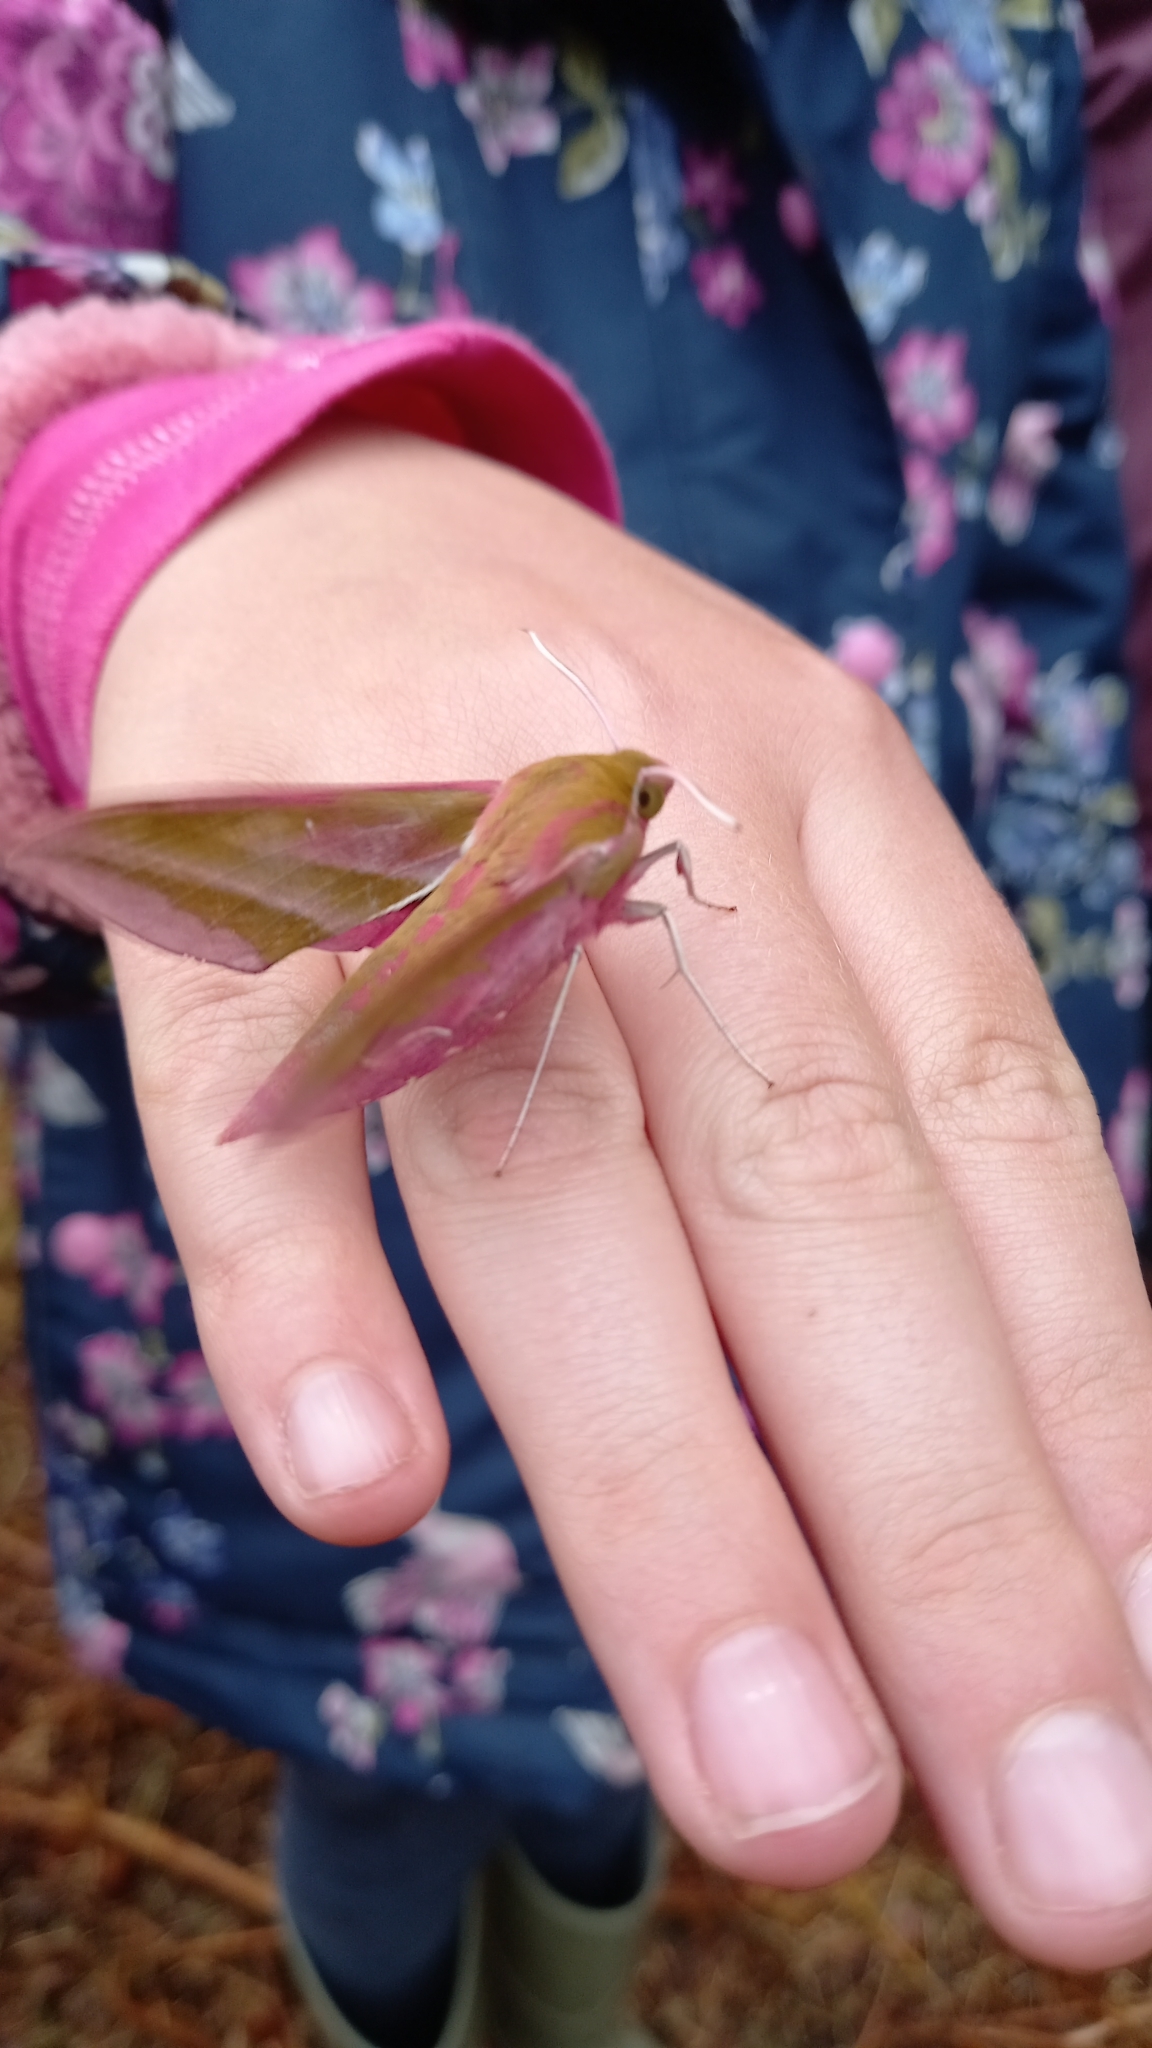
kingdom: Animalia
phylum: Arthropoda
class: Insecta
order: Lepidoptera
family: Sphingidae
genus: Deilephila
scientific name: Deilephila elpenor
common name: Elephant hawk-moth
